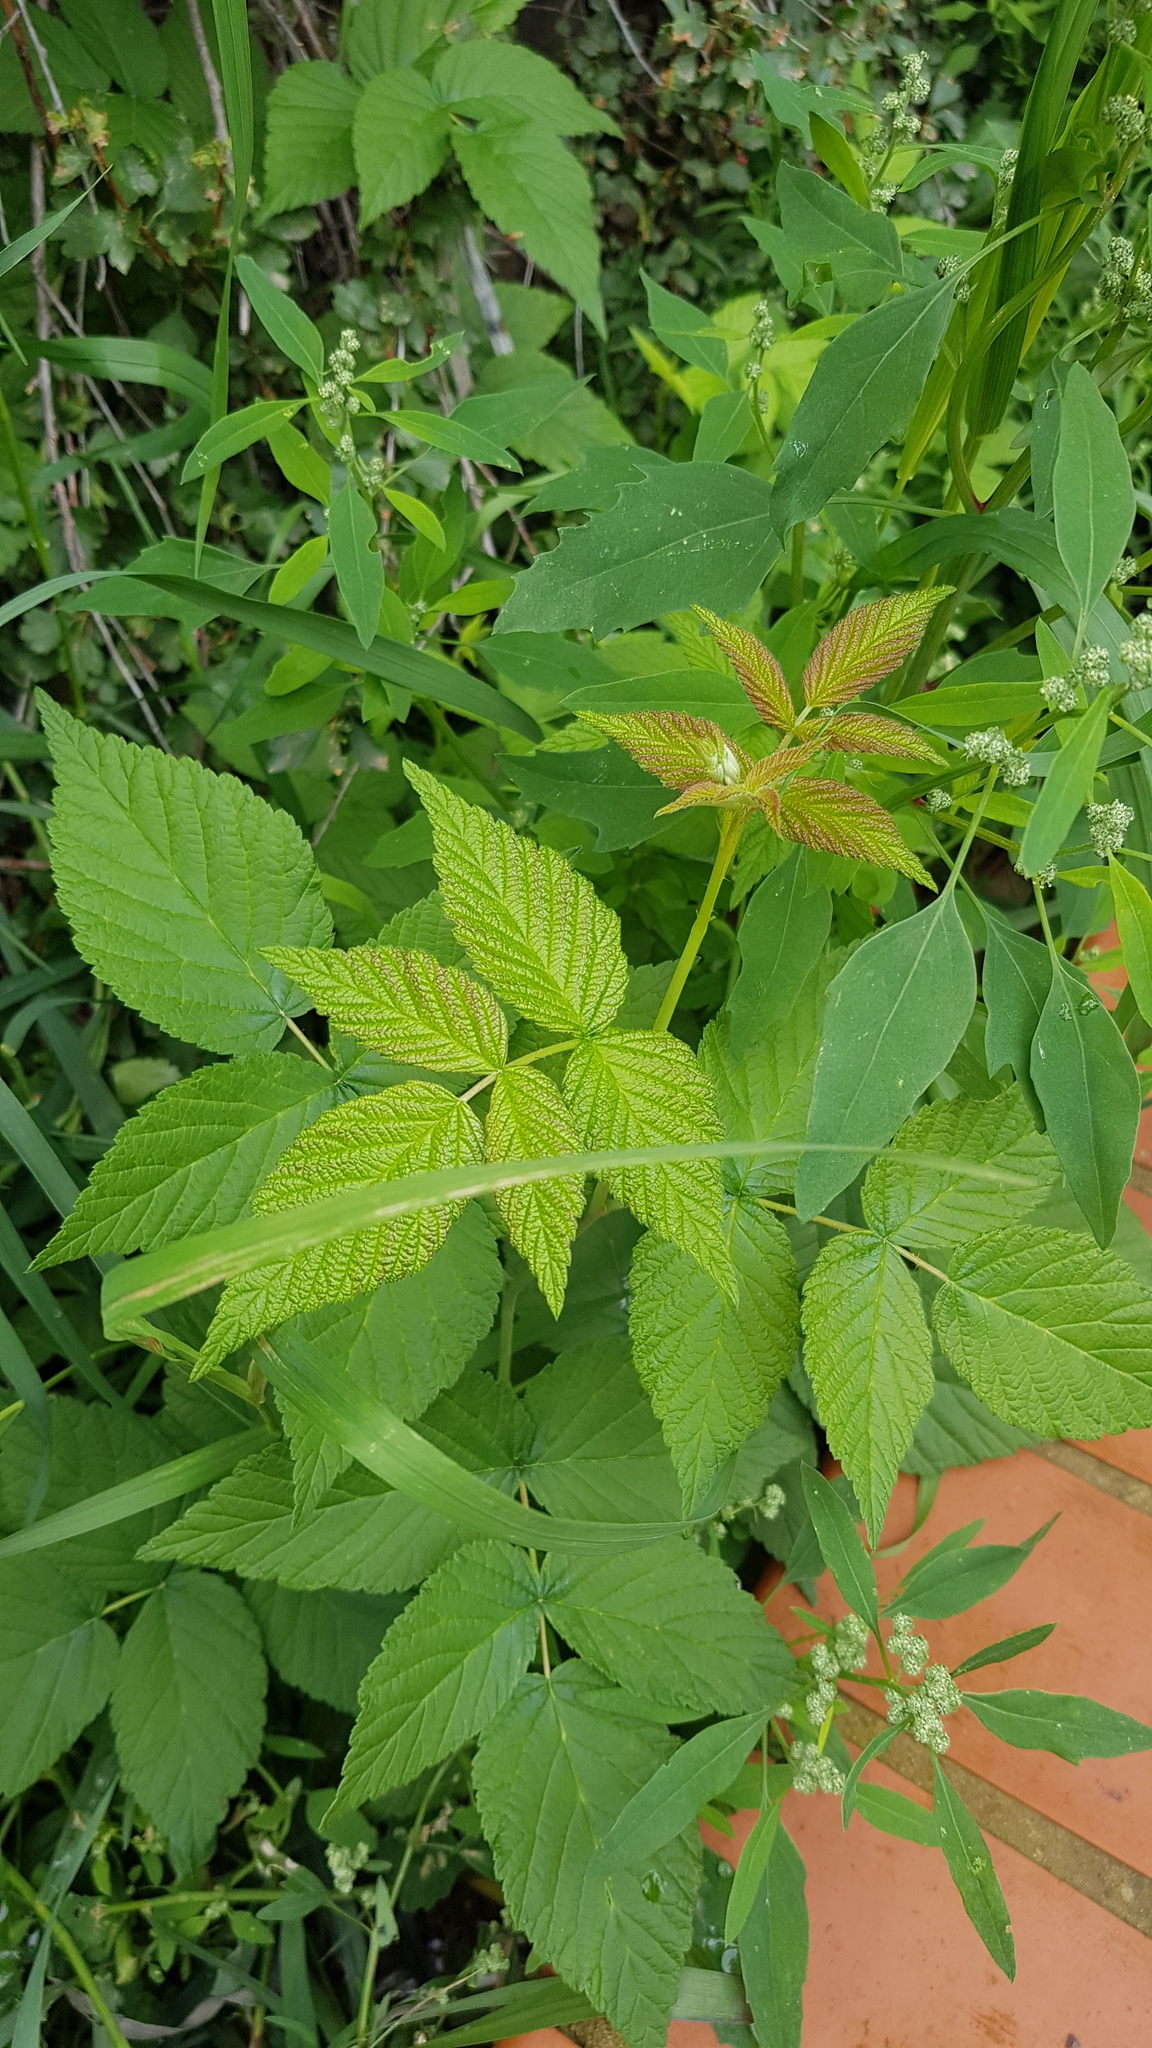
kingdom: Plantae
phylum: Tracheophyta
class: Magnoliopsida
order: Rosales
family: Rosaceae
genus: Rubus
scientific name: Rubus sachalinensis
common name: Red raspberry
